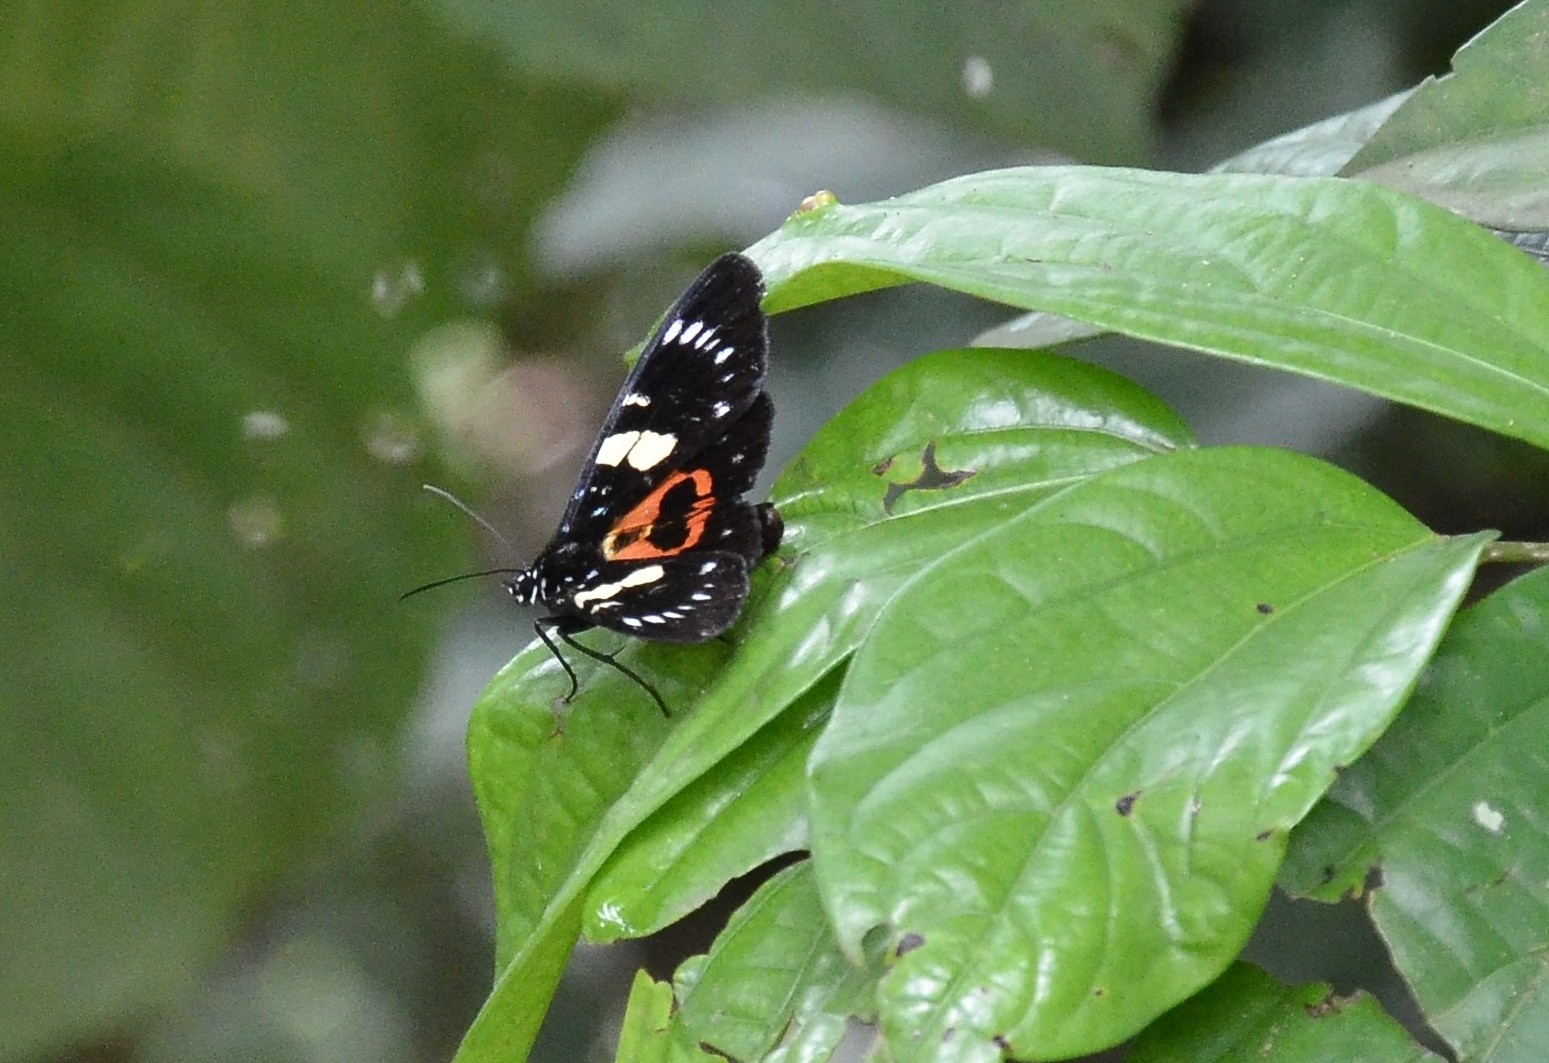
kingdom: Animalia
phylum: Arthropoda
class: Insecta
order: Lepidoptera
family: Noctuidae
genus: Episteme
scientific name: Episteme adulatrix
